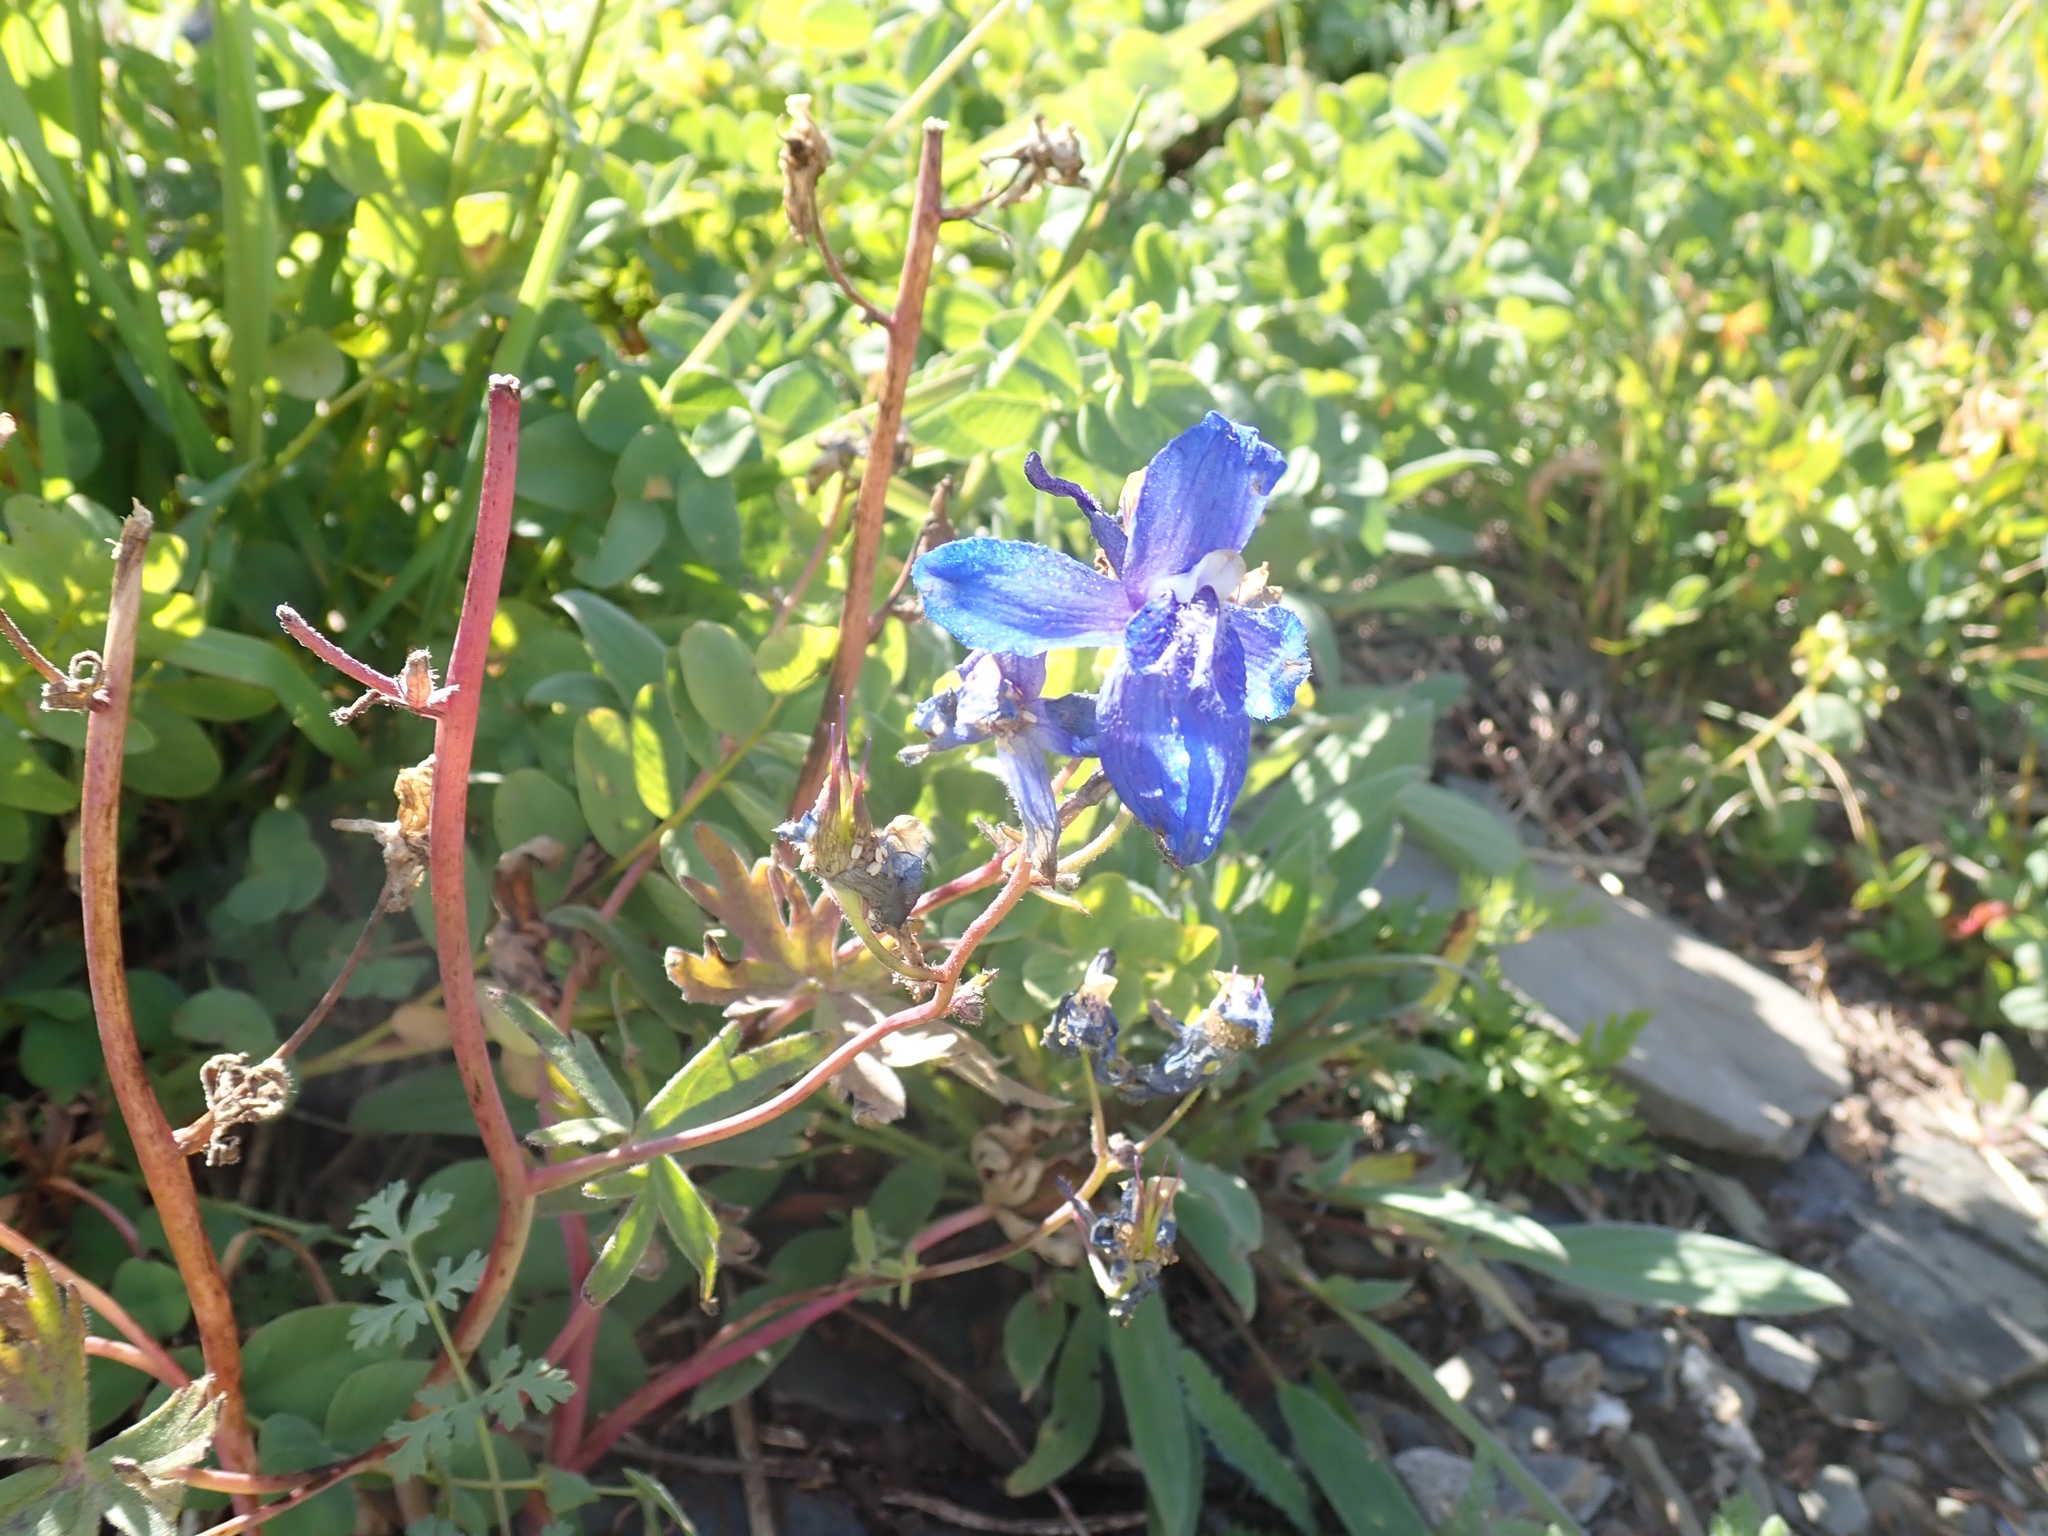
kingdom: Plantae
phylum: Tracheophyta
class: Magnoliopsida
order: Ranunculales
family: Ranunculaceae
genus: Delphinium
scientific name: Delphinium glareosum
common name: Olympic mountain larkspur
